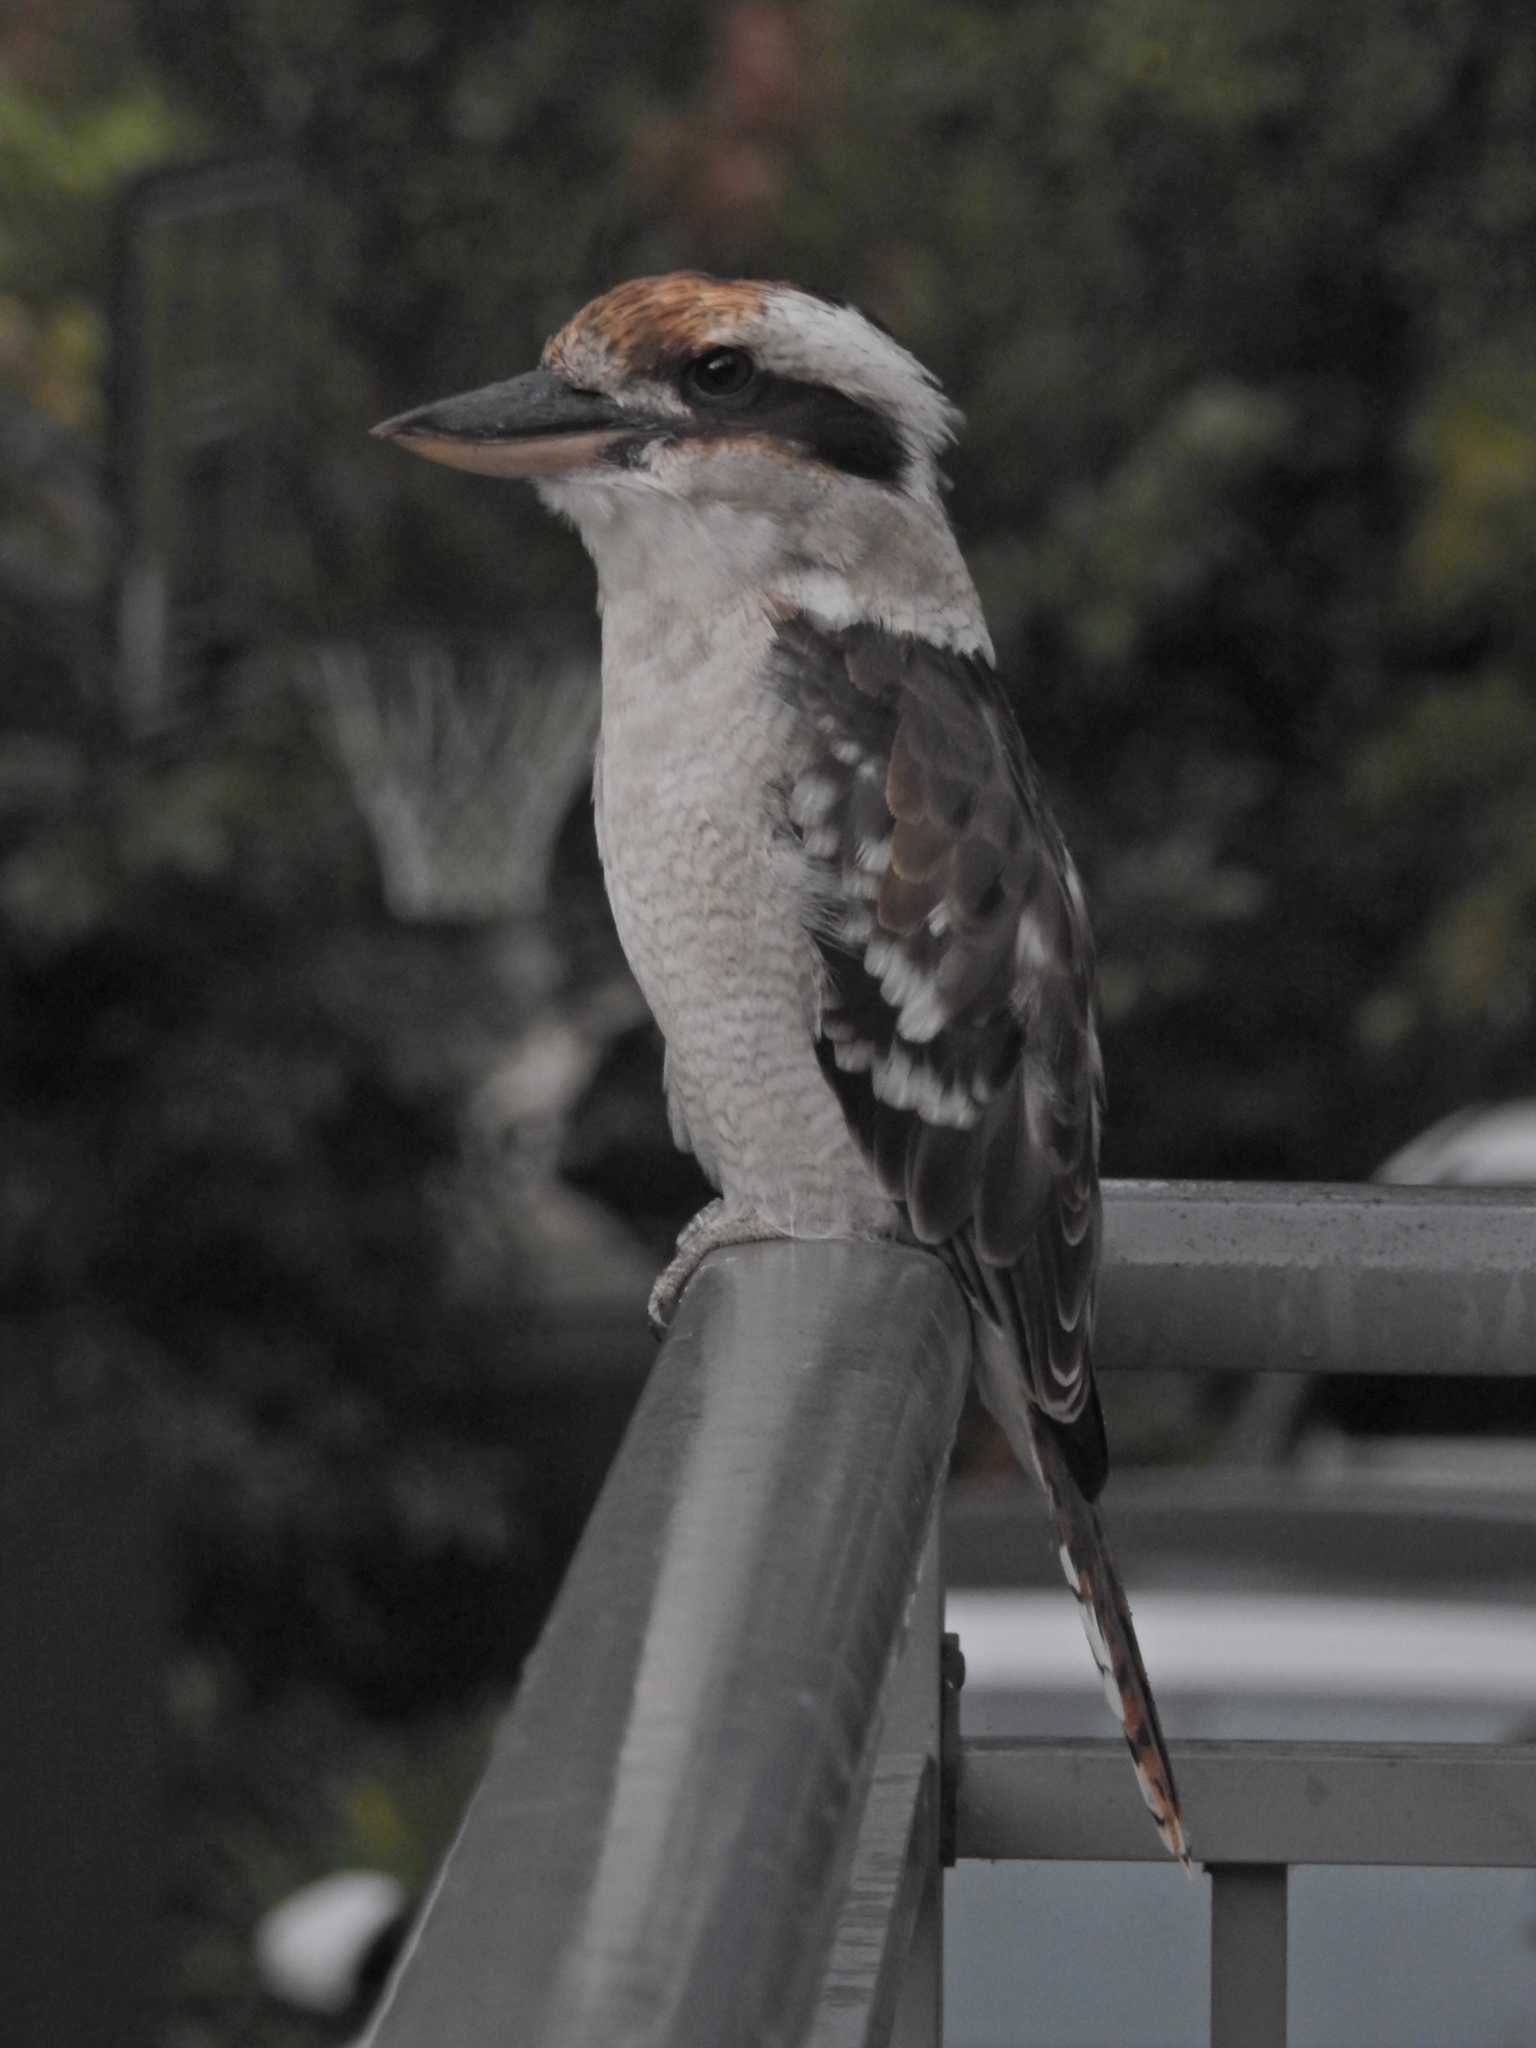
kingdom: Animalia
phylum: Chordata
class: Aves
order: Coraciiformes
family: Alcedinidae
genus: Dacelo
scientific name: Dacelo novaeguineae
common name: Laughing kookaburra
